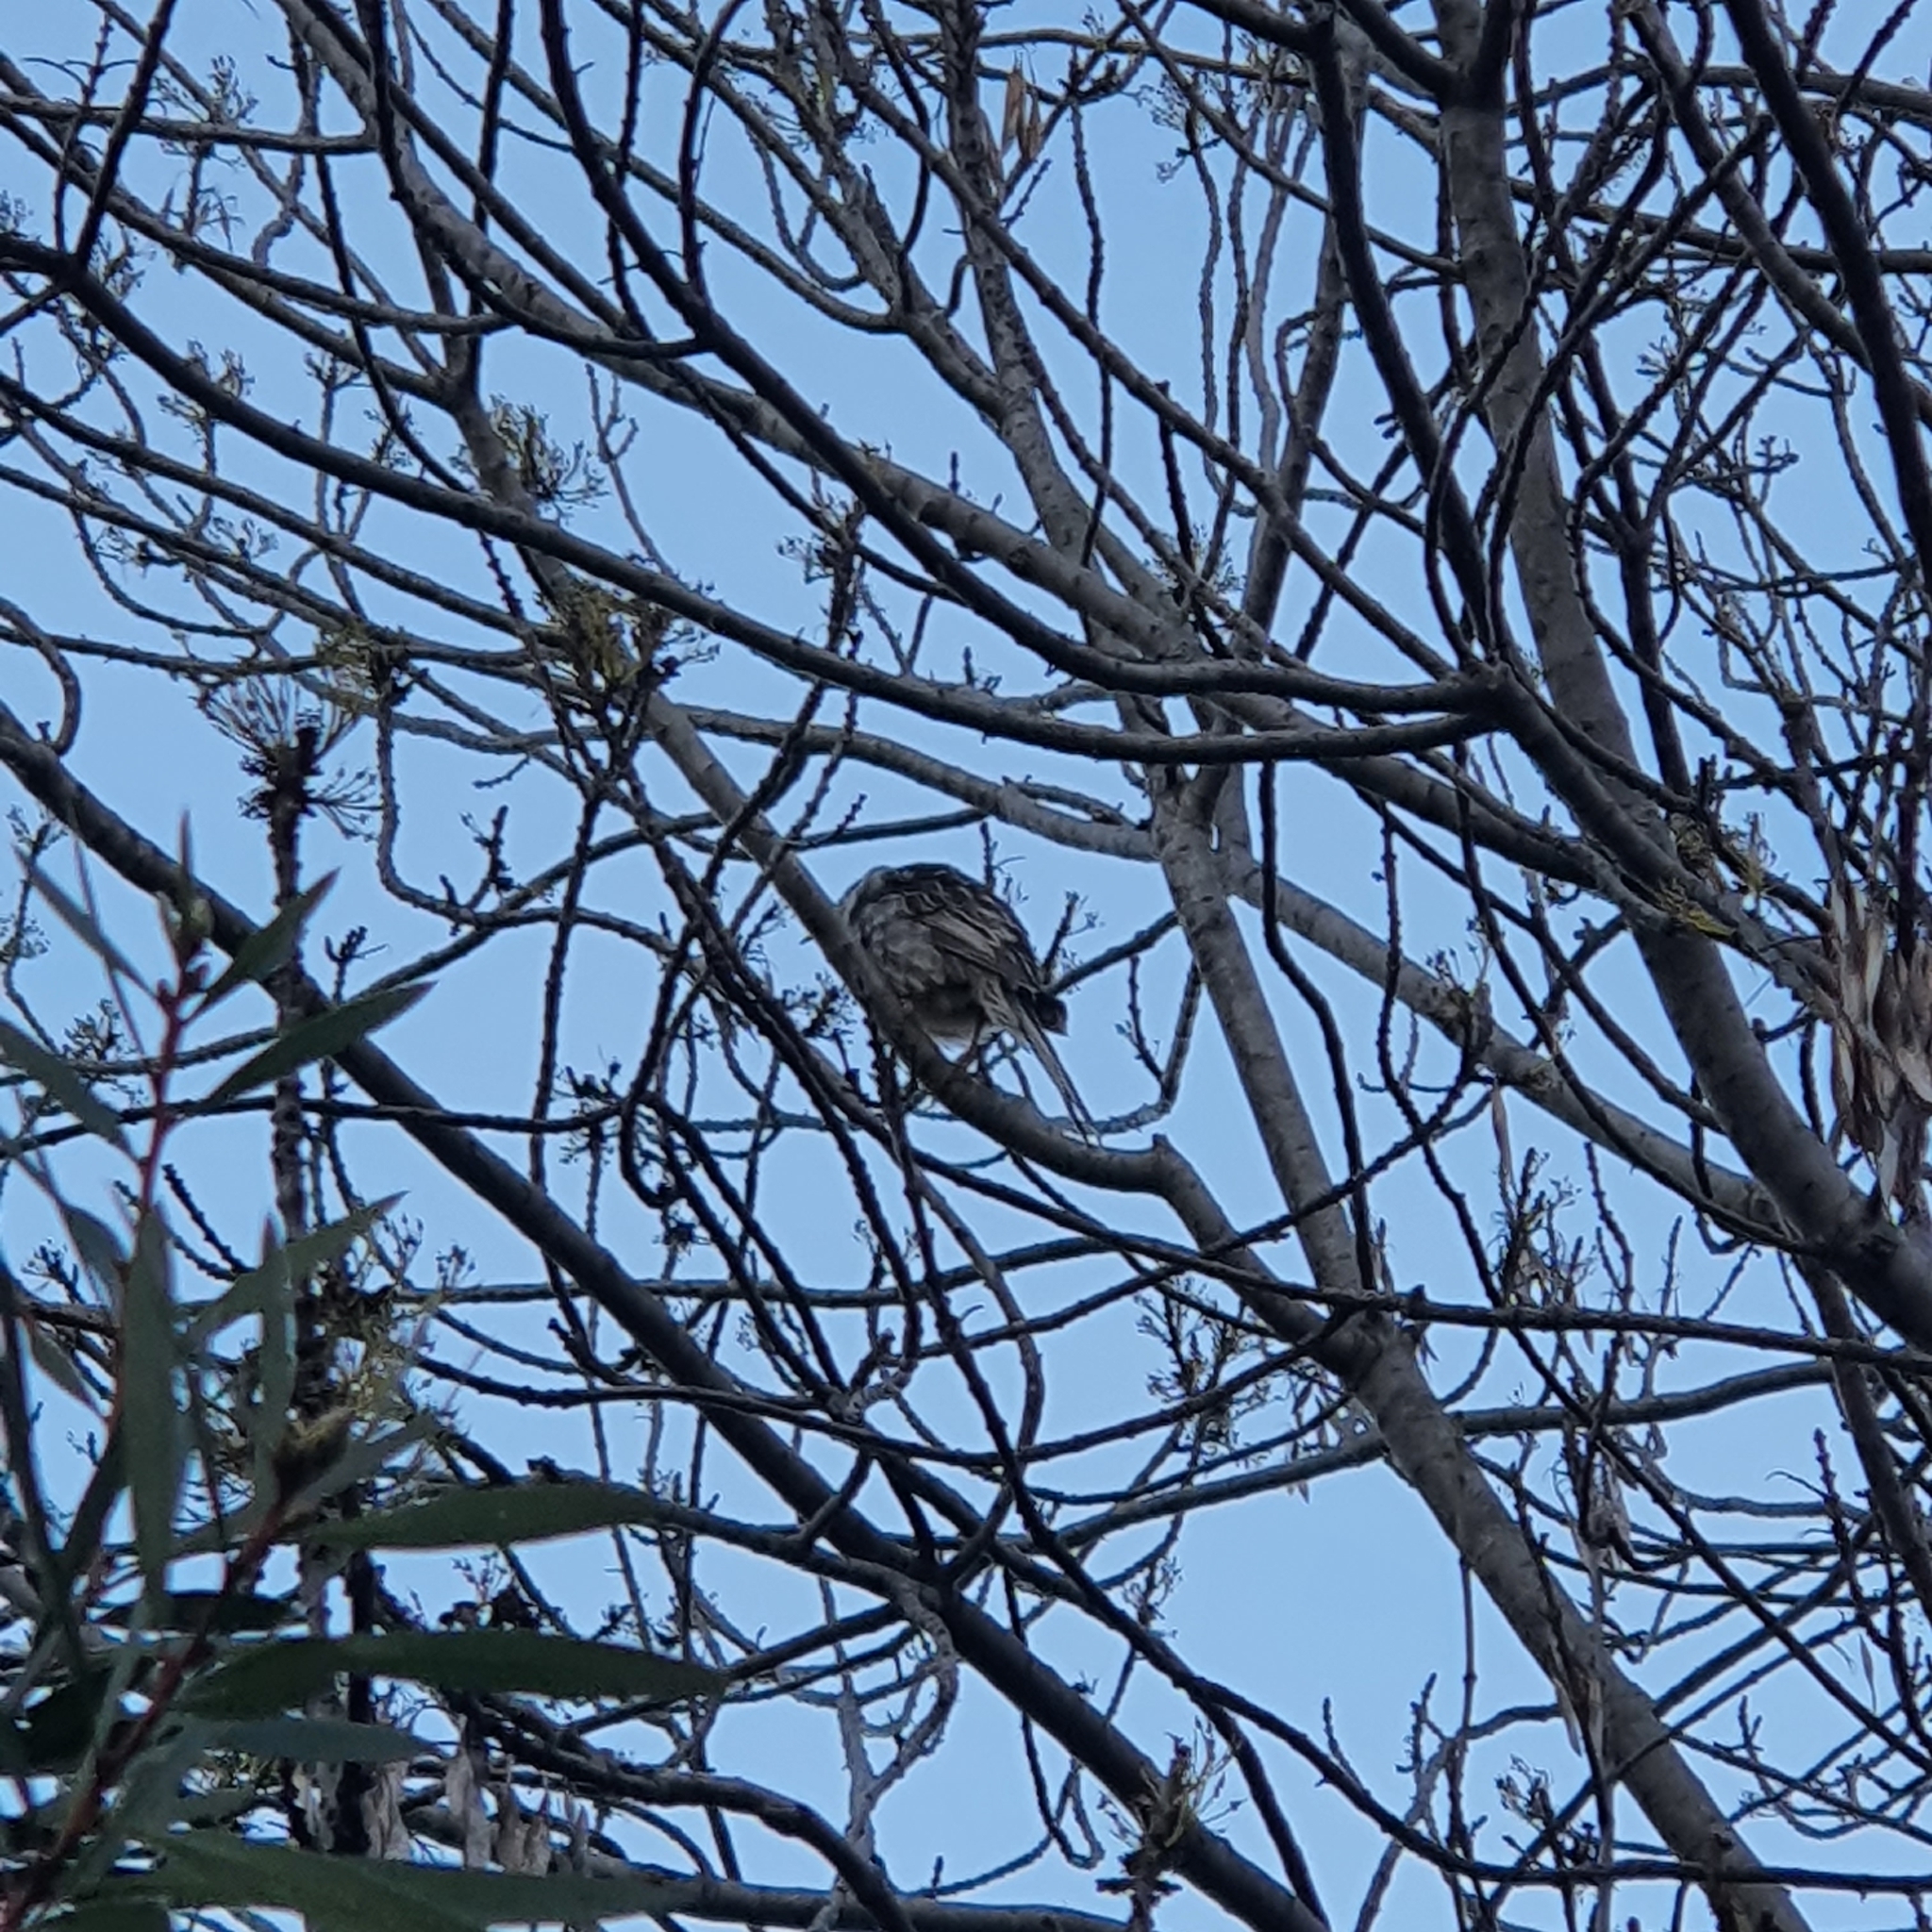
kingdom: Animalia
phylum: Chordata
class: Aves
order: Passeriformes
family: Meliphagidae
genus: Anthochaera
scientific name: Anthochaera carunculata
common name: Red wattlebird
